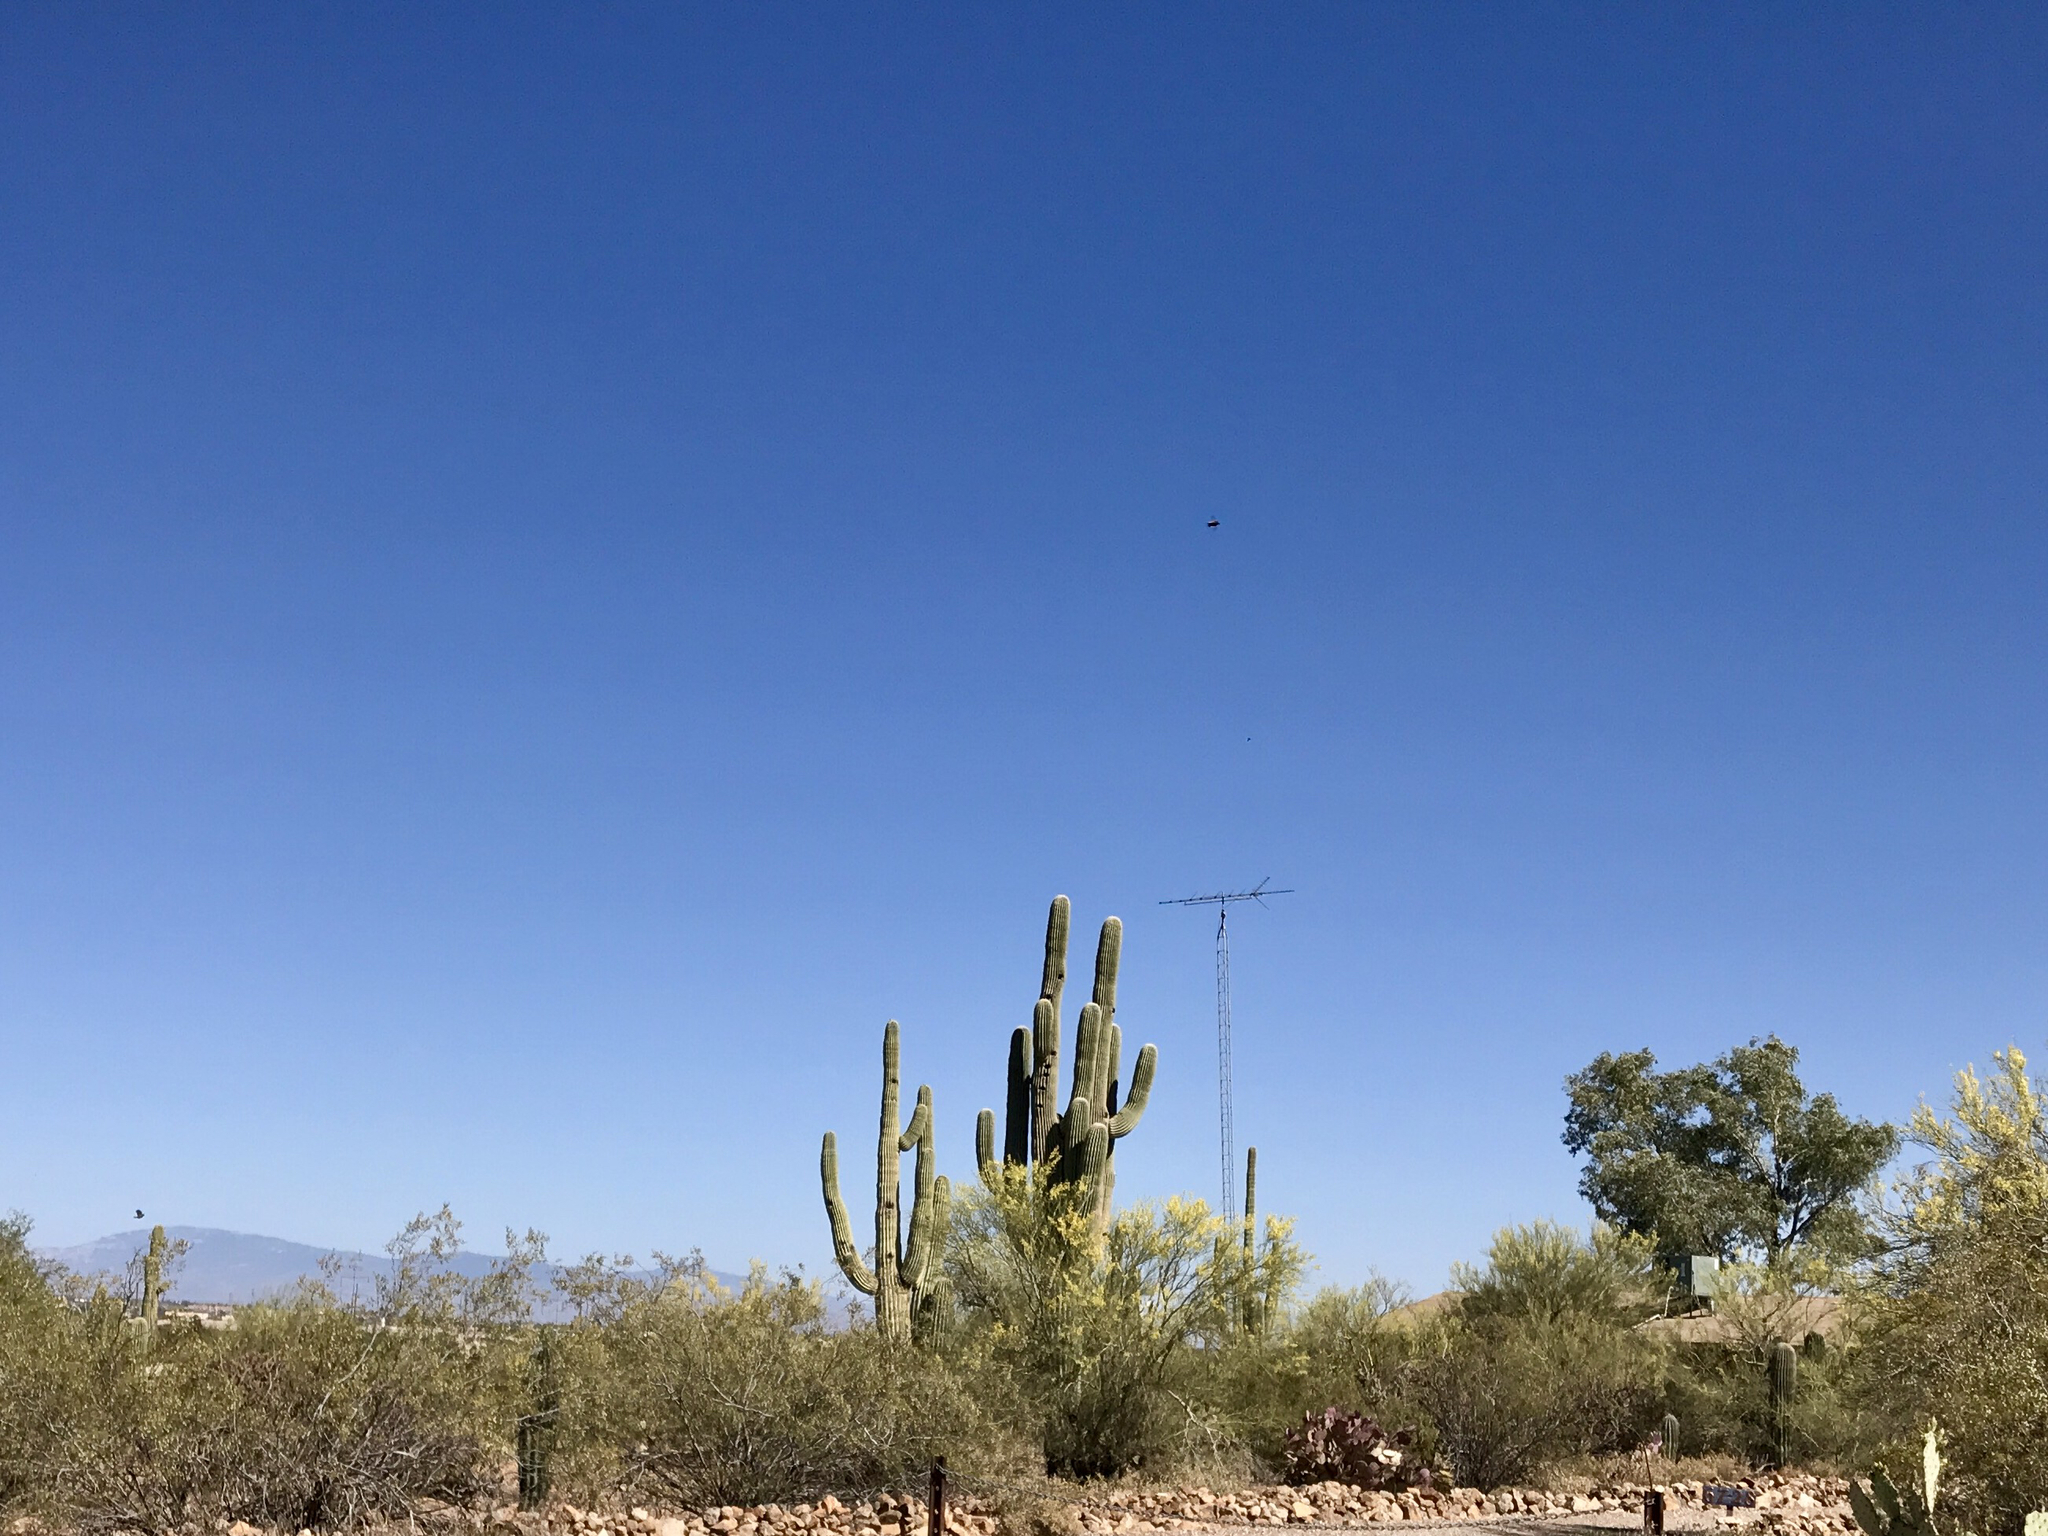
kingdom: Plantae
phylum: Tracheophyta
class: Magnoliopsida
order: Caryophyllales
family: Cactaceae
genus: Carnegiea
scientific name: Carnegiea gigantea
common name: Saguaro
